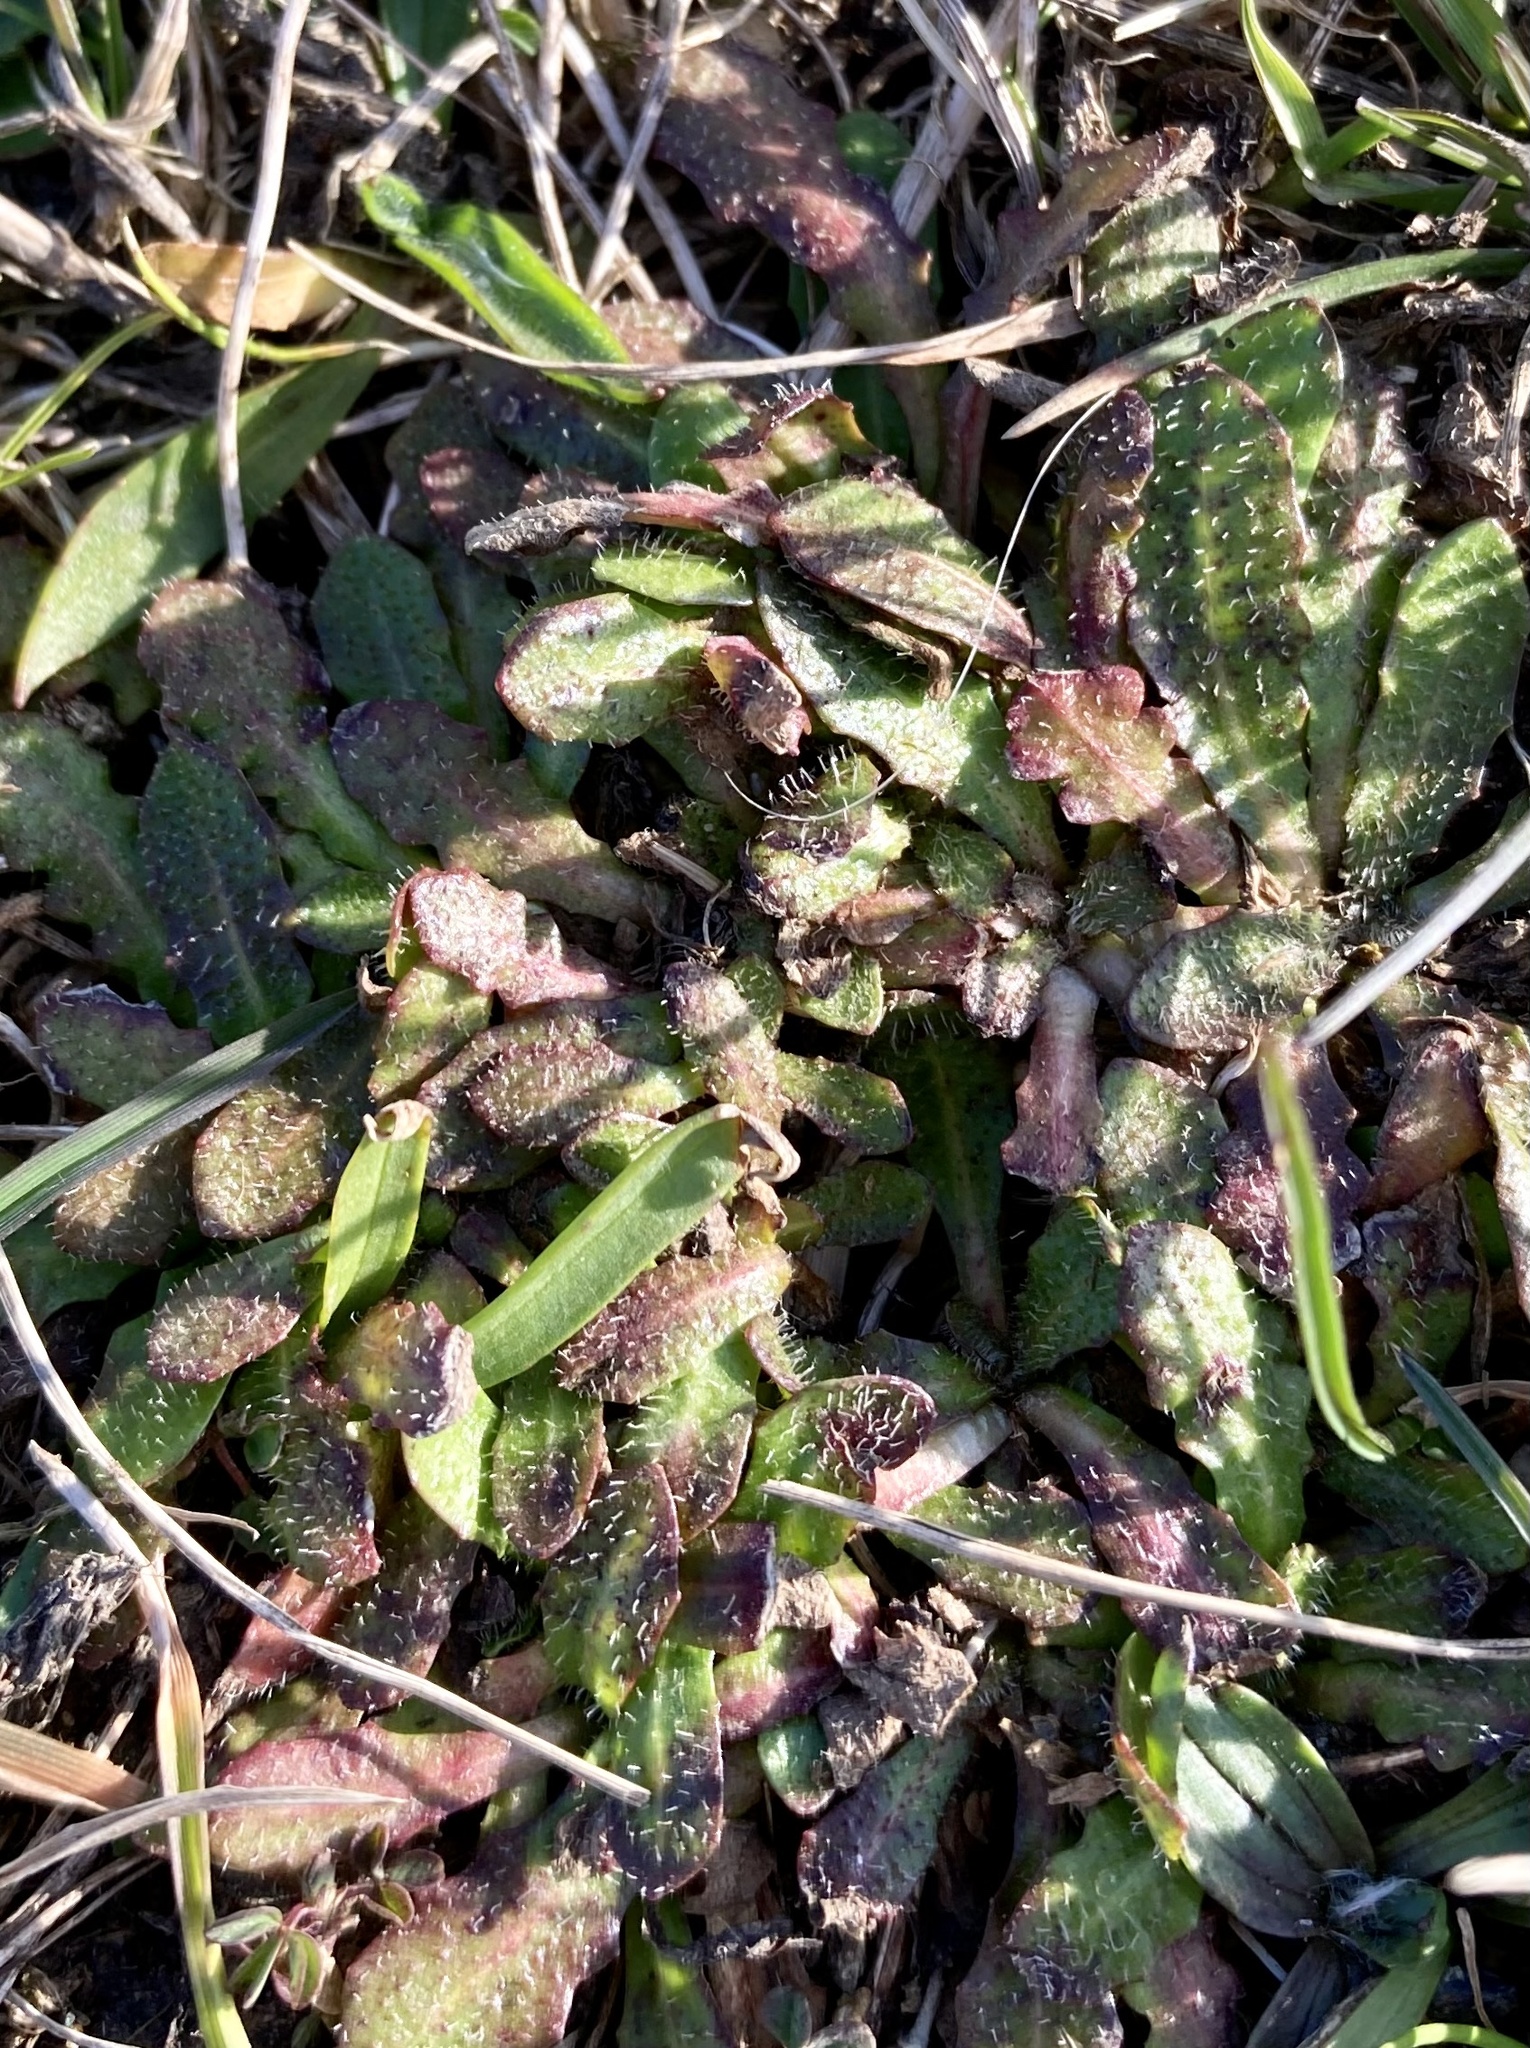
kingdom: Plantae
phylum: Tracheophyta
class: Magnoliopsida
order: Asterales
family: Asteraceae
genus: Hypochaeris
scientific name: Hypochaeris radicata
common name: Flatweed
